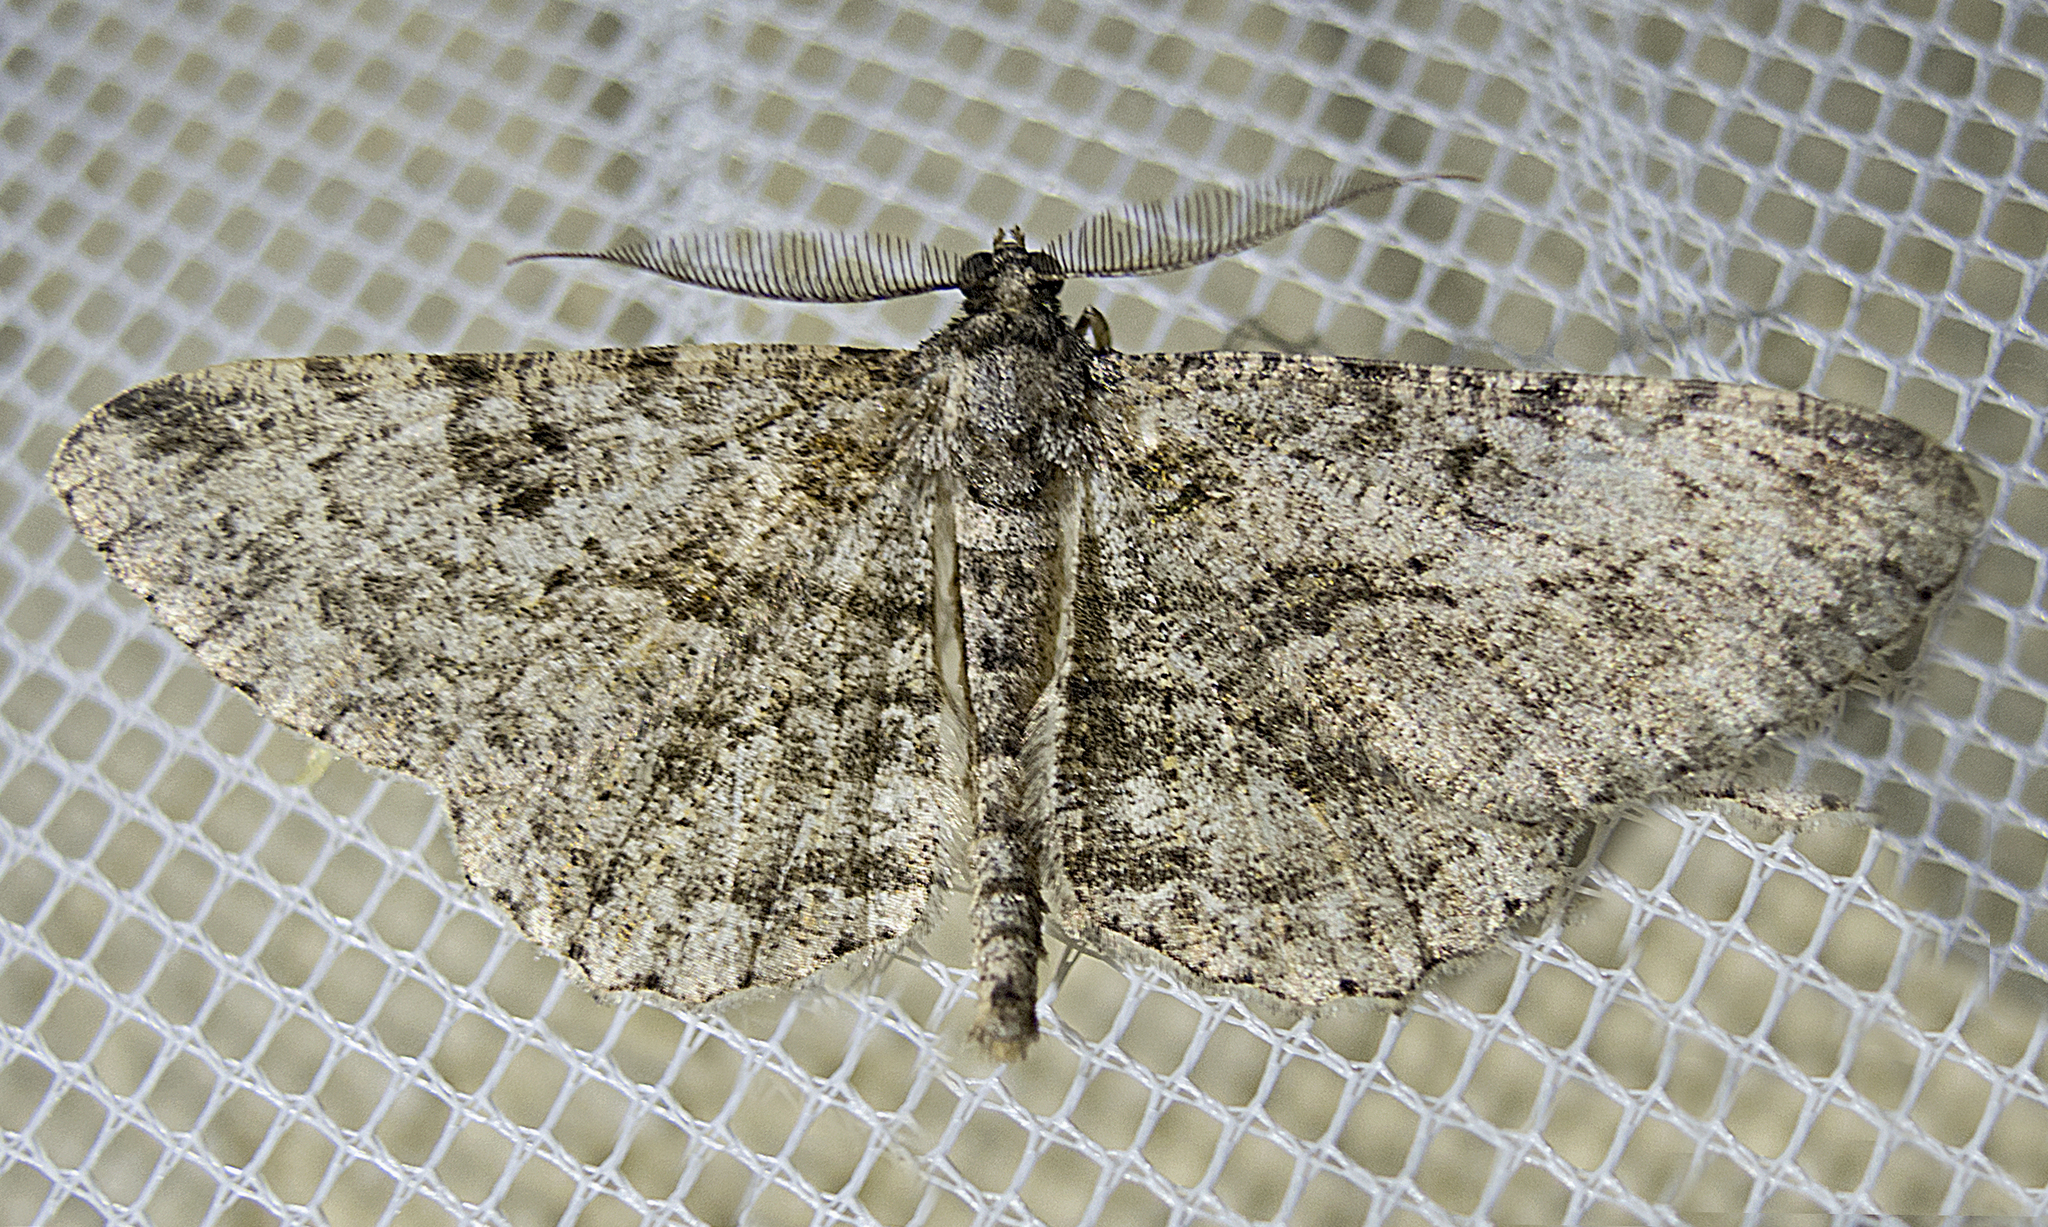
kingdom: Animalia
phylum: Arthropoda
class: Insecta
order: Lepidoptera
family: Geometridae
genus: Peribatodes
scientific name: Peribatodes rhomboidaria
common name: Willow beauty
